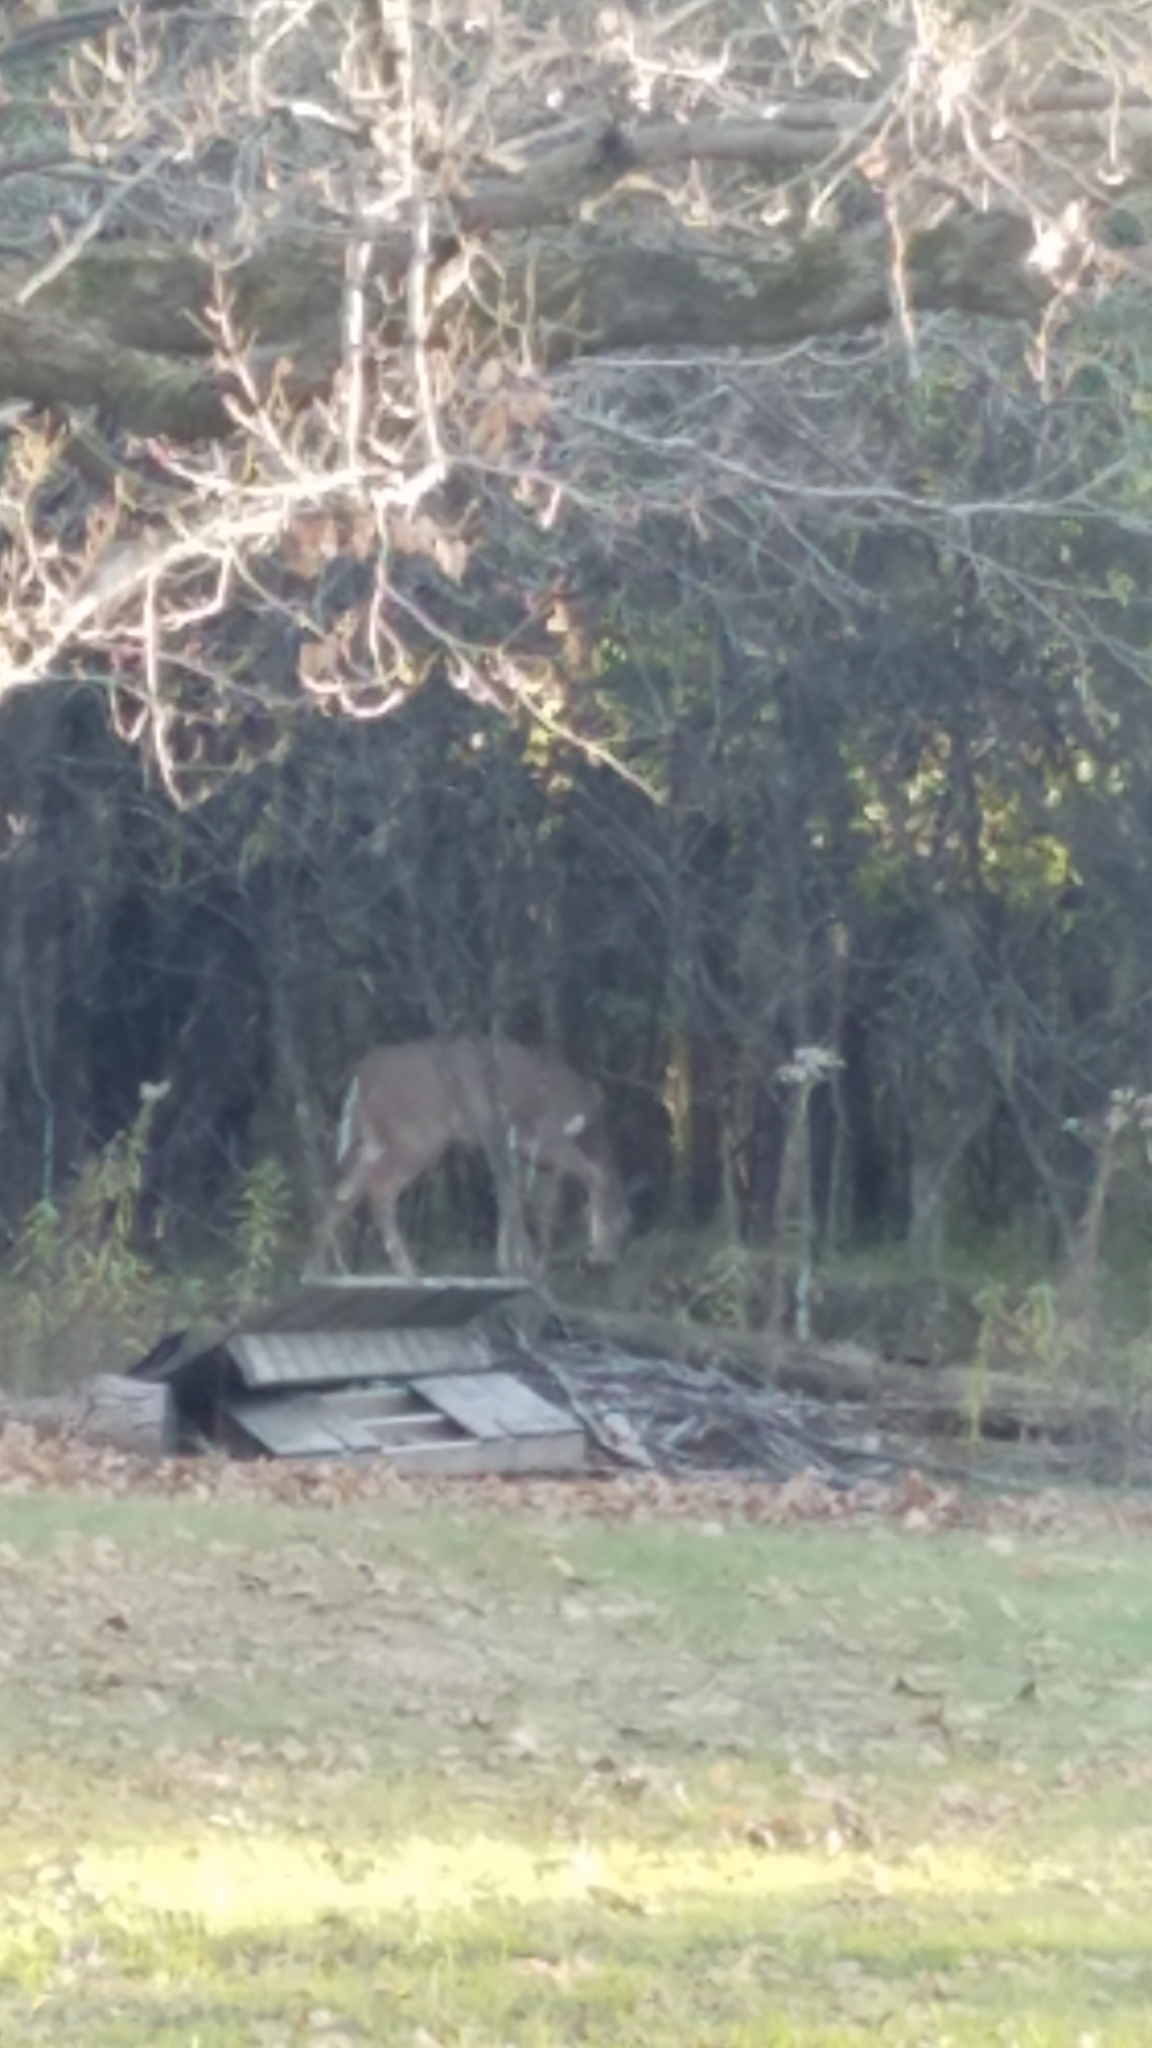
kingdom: Animalia
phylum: Chordata
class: Mammalia
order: Artiodactyla
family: Cervidae
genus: Odocoileus
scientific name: Odocoileus virginianus
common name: White-tailed deer
